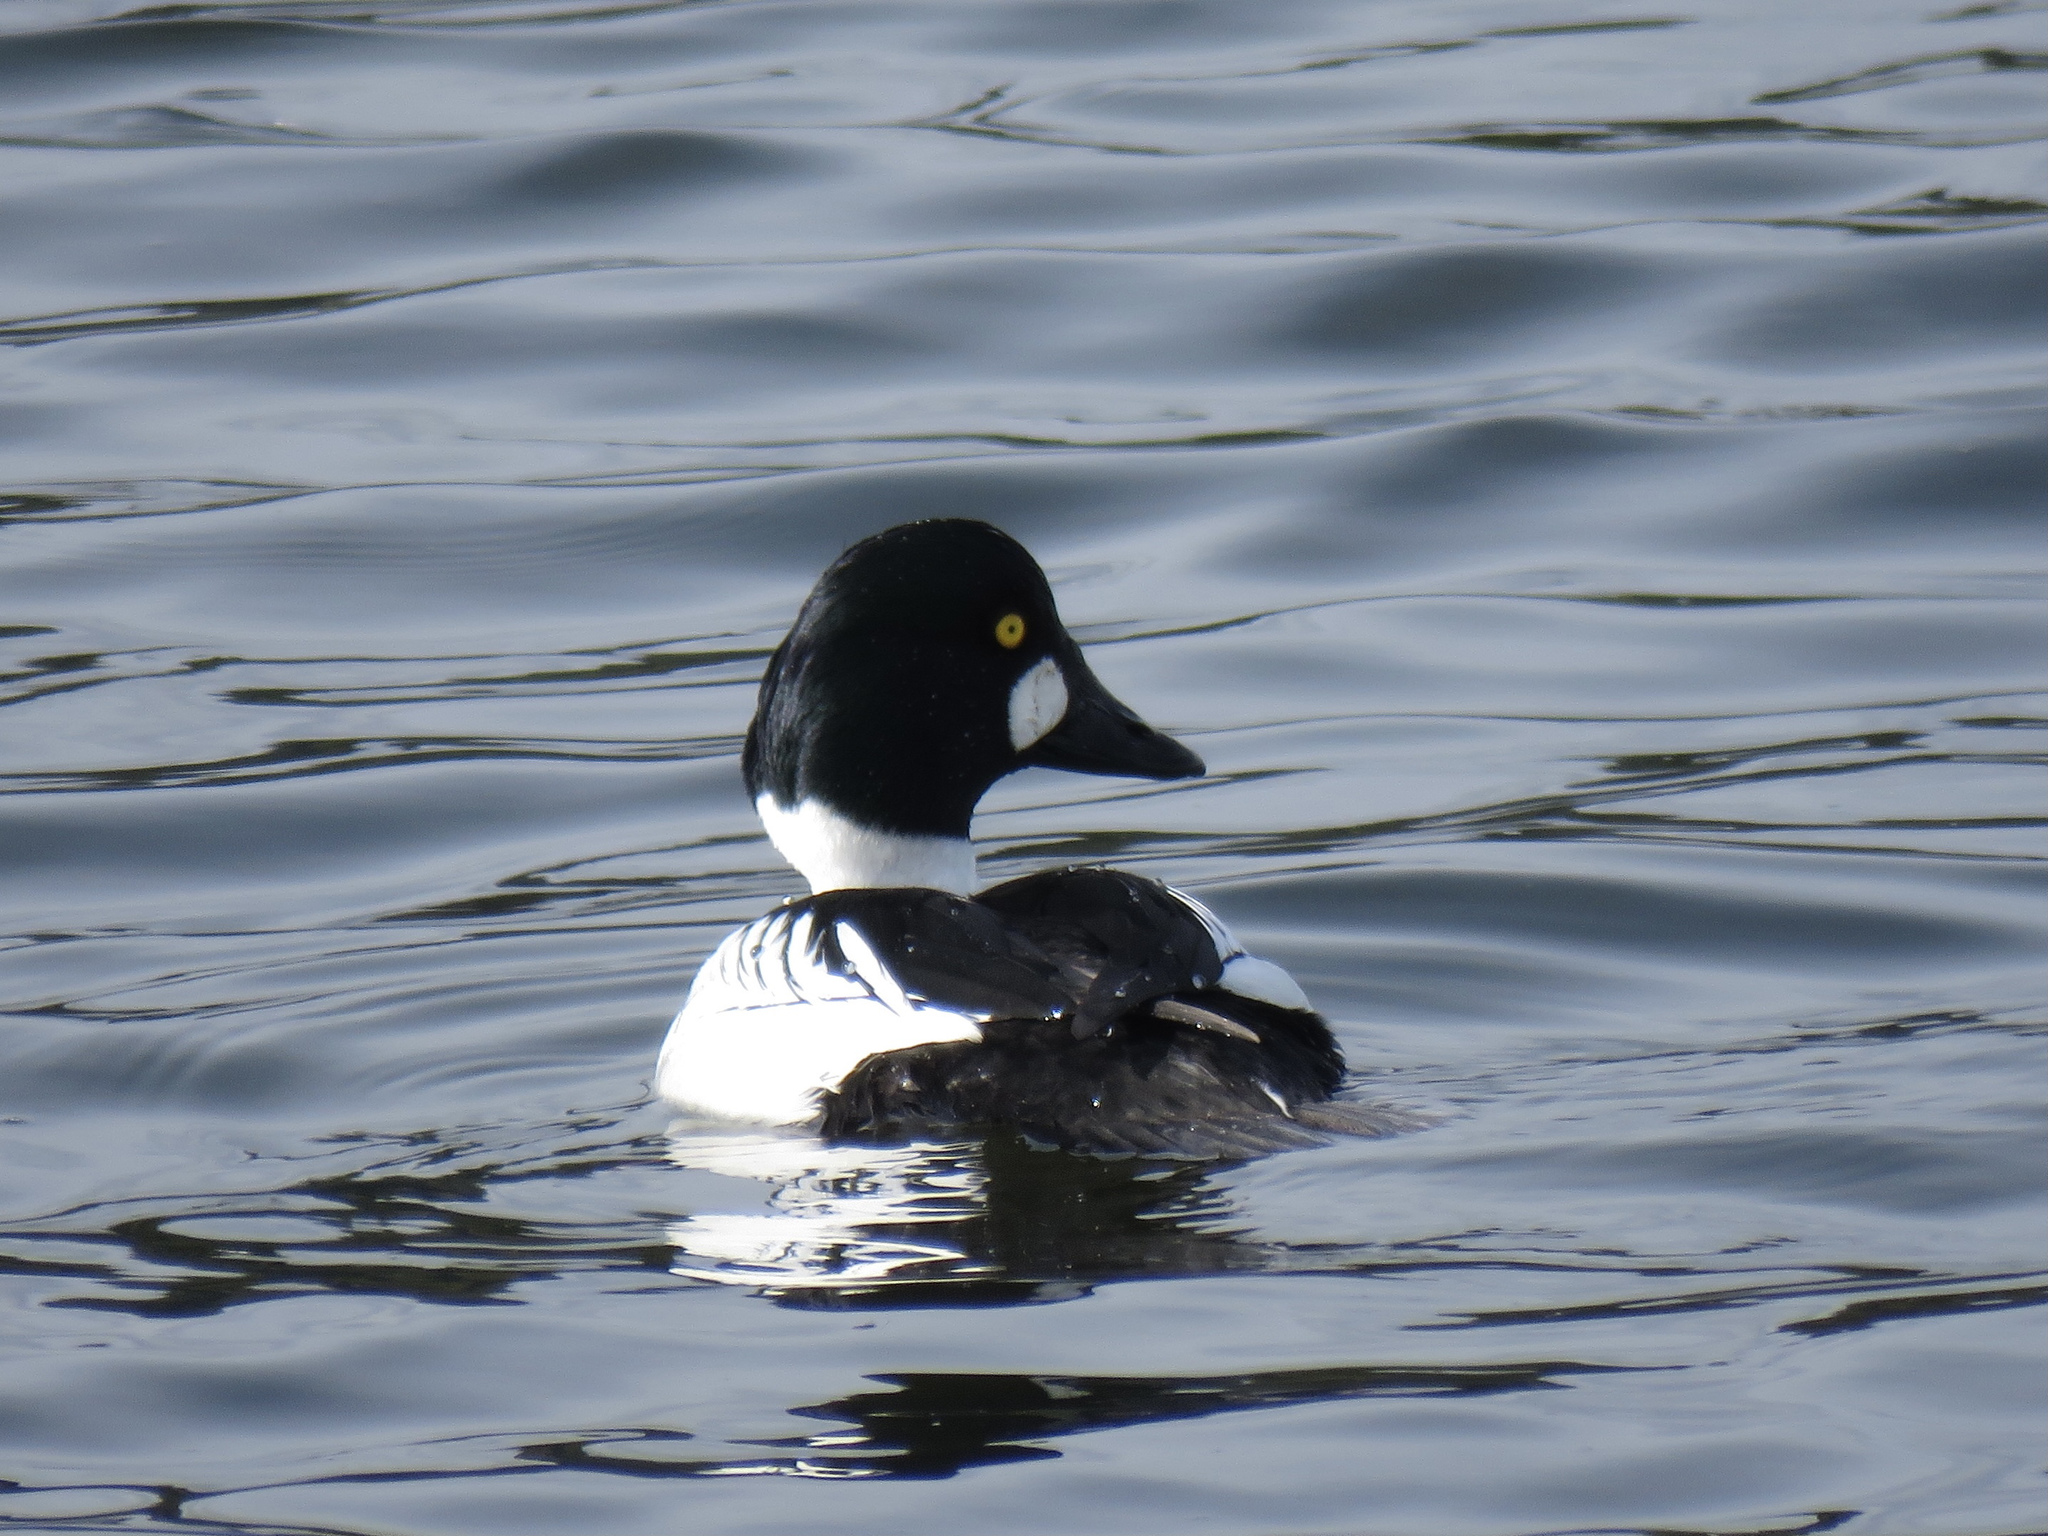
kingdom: Animalia
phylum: Chordata
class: Aves
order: Anseriformes
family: Anatidae
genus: Bucephala
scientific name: Bucephala clangula
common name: Common goldeneye
